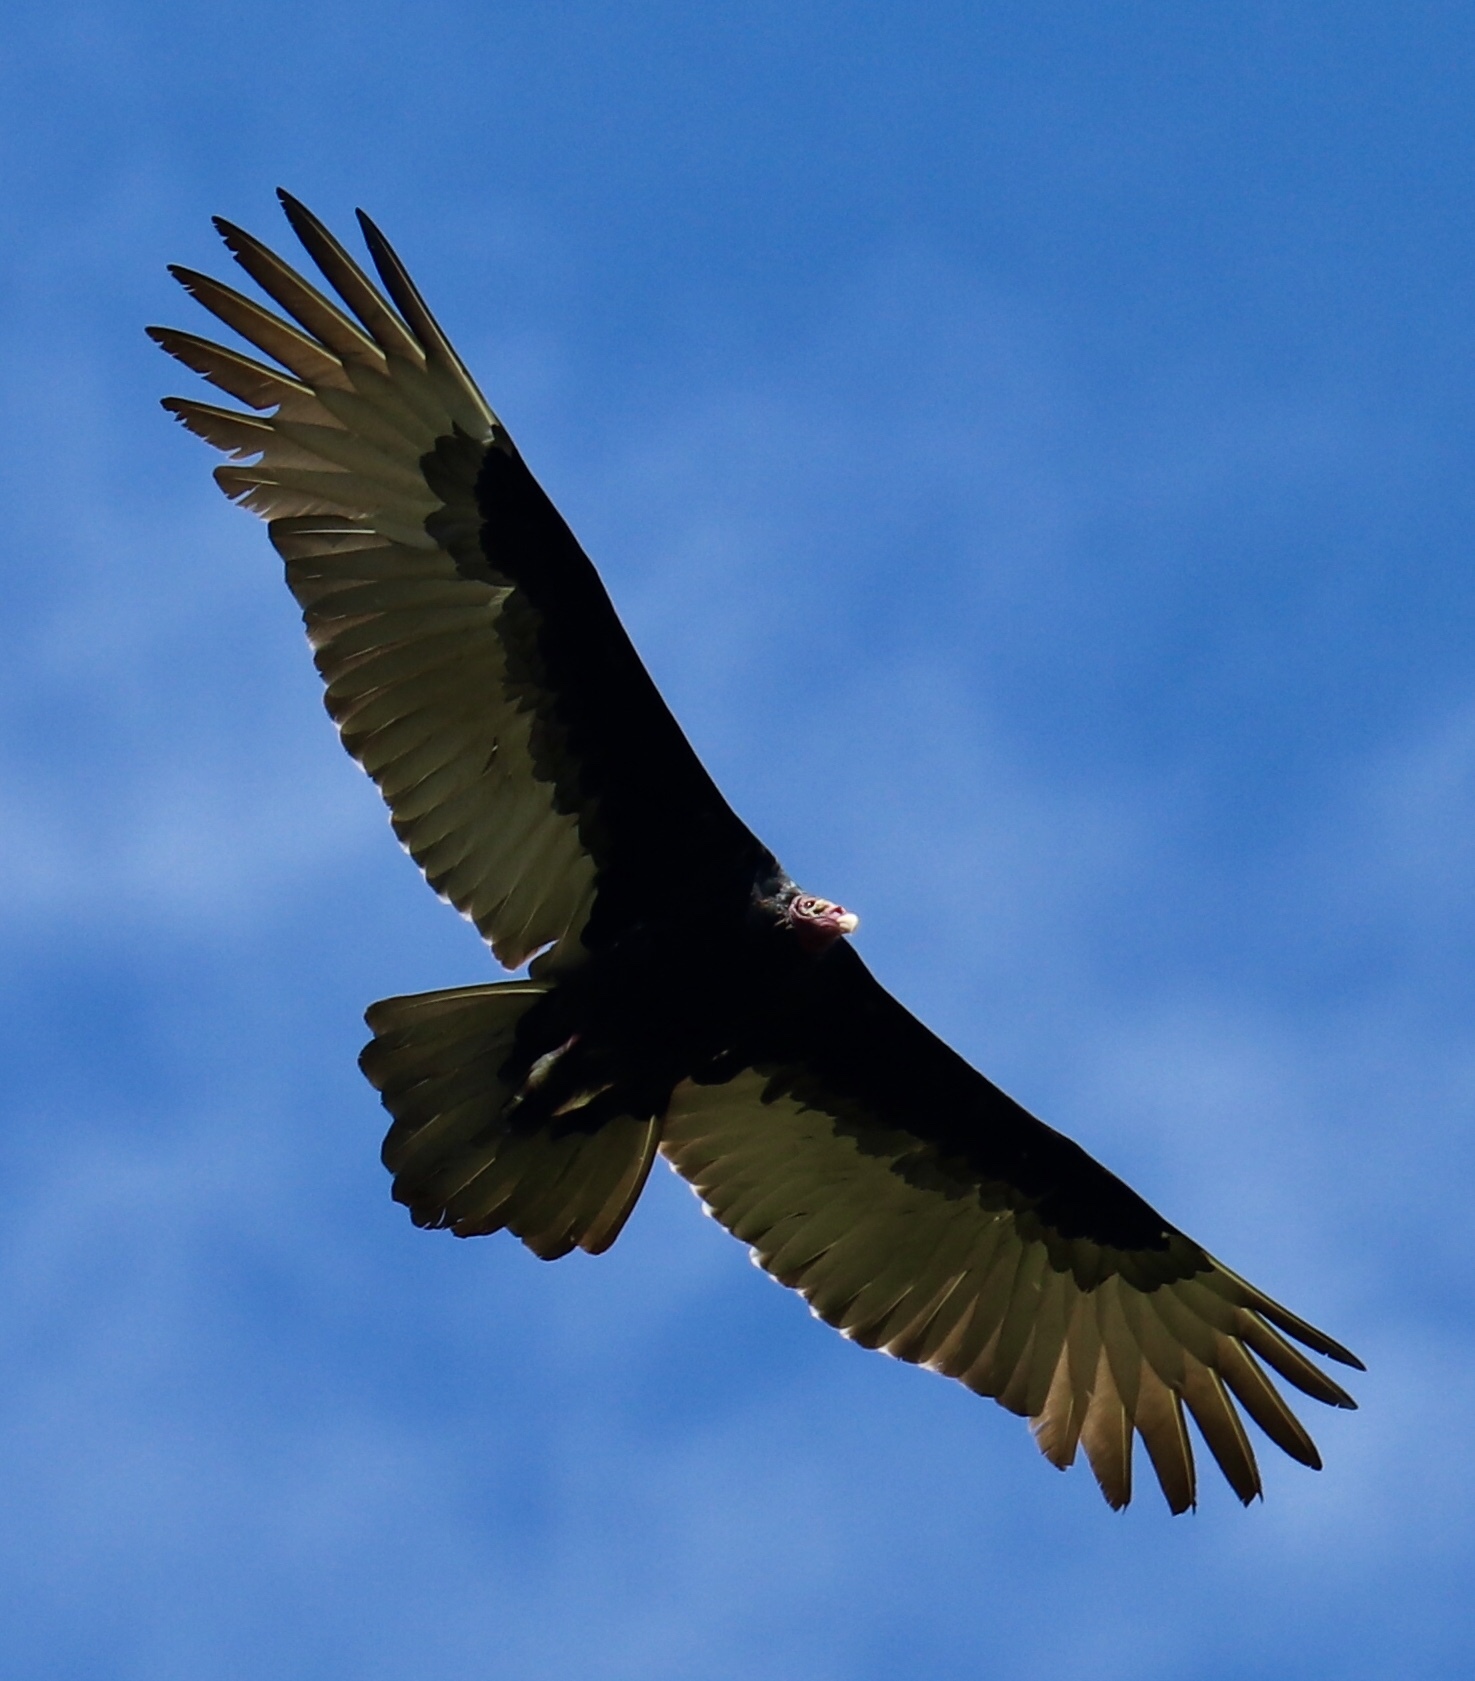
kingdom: Animalia
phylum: Chordata
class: Aves
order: Accipitriformes
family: Cathartidae
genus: Cathartes
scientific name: Cathartes aura
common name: Turkey vulture
